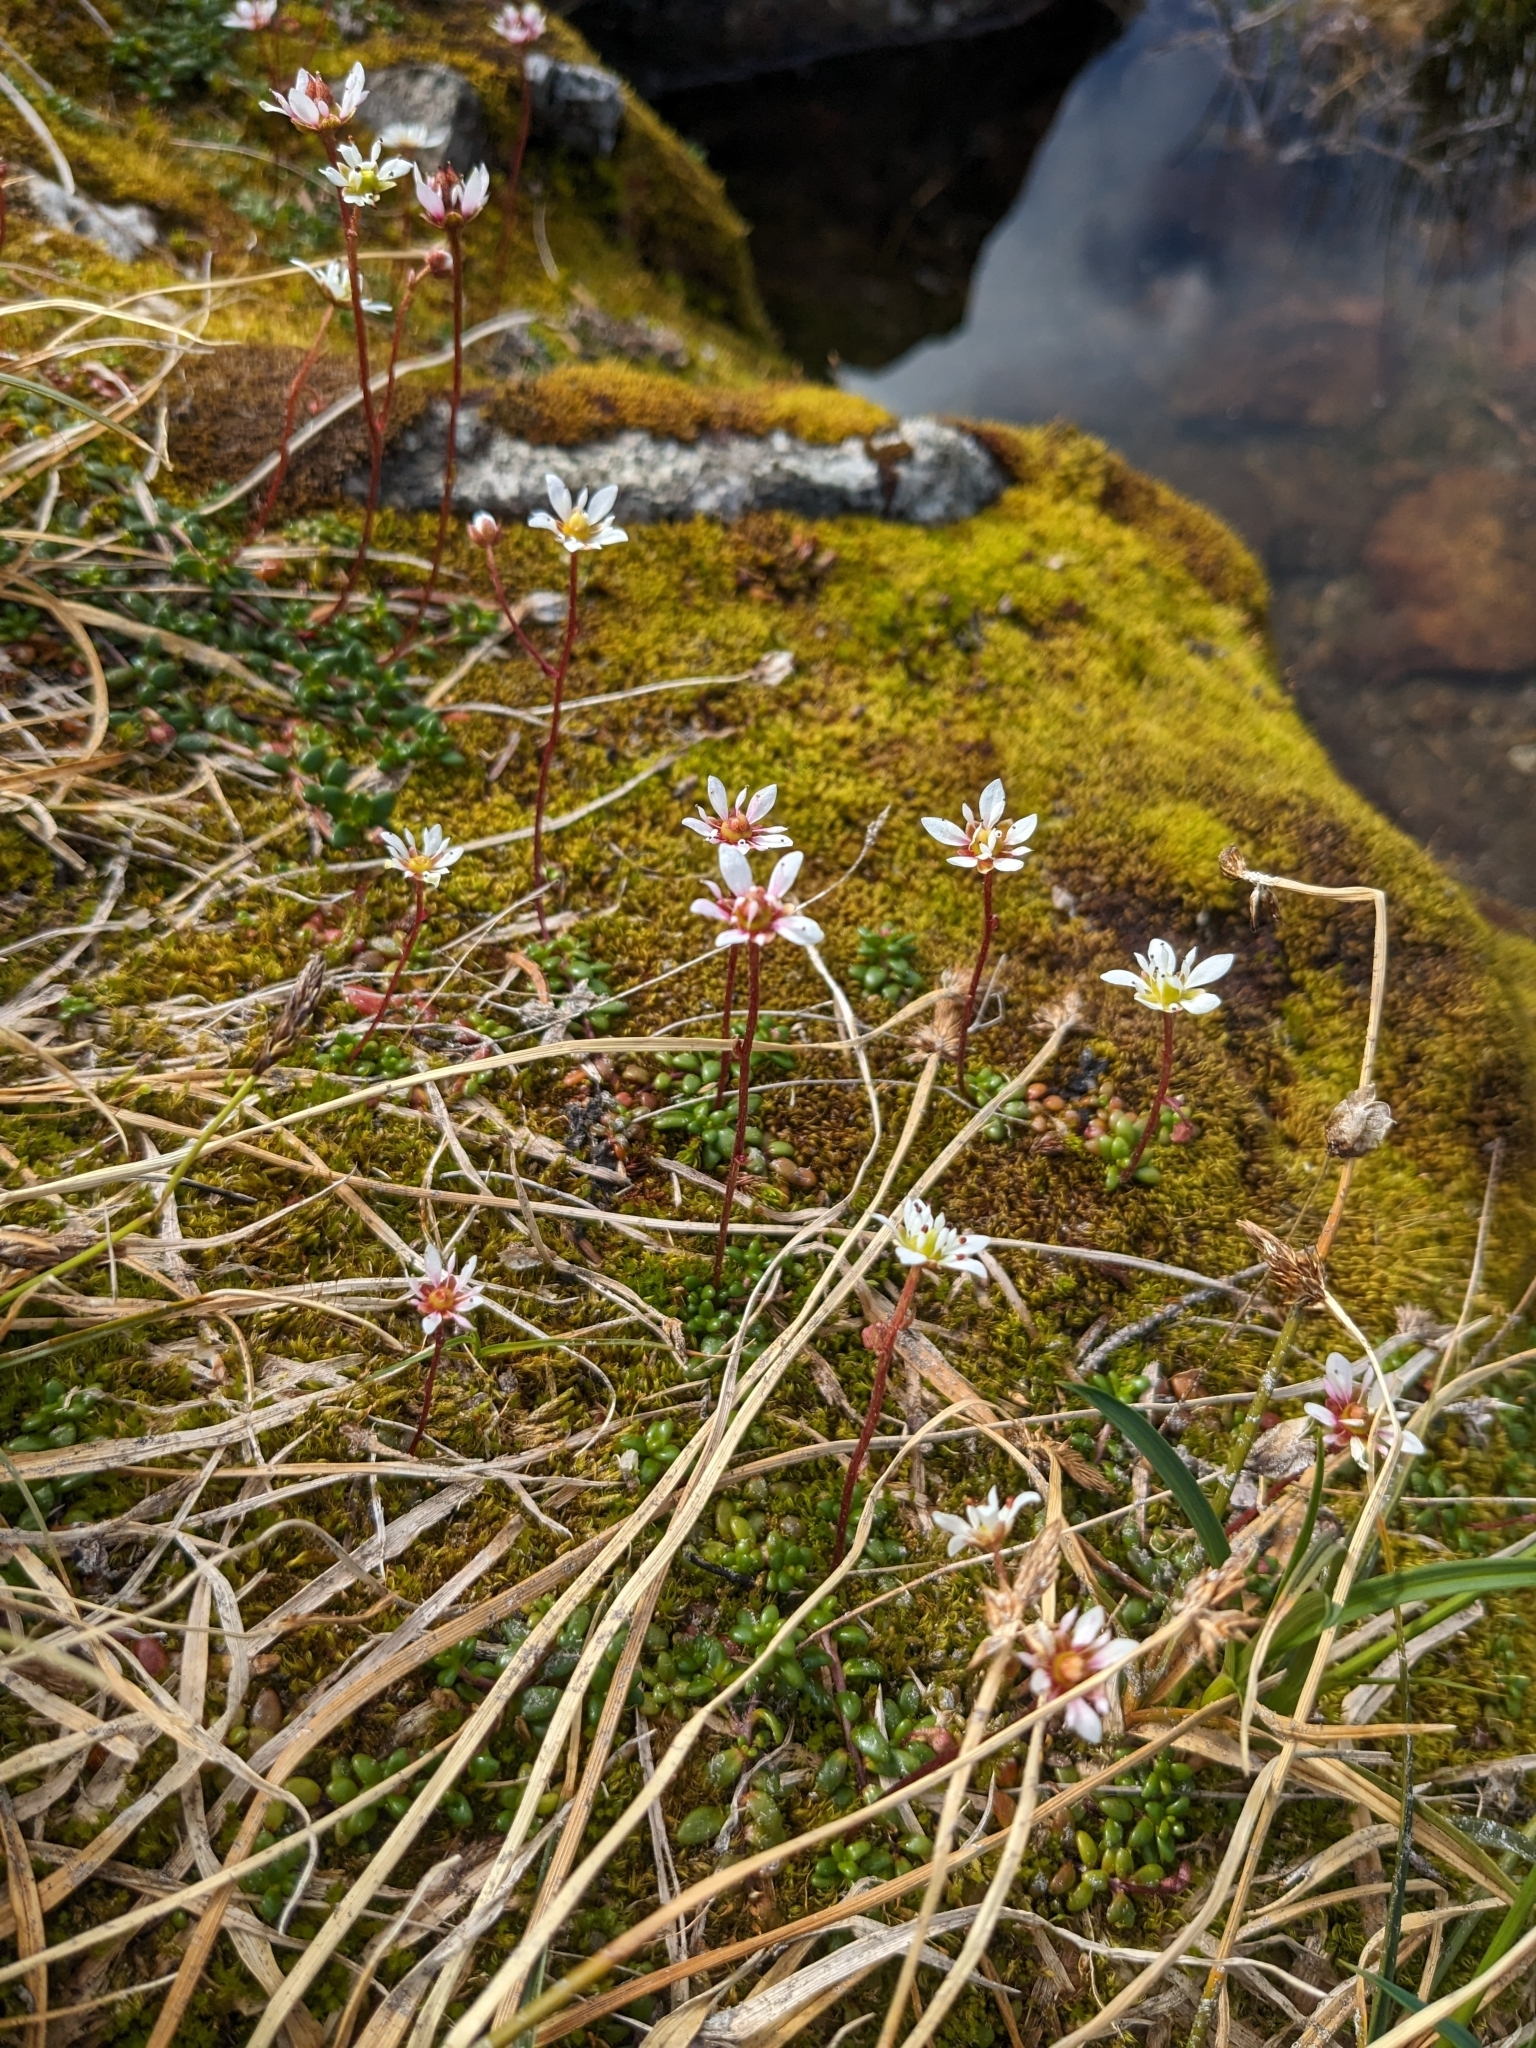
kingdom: Plantae
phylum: Tracheophyta
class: Magnoliopsida
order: Saxifragales
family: Saxifragaceae
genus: Micranthes
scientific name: Micranthes tolmiei
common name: Tolmie's saxifrage
